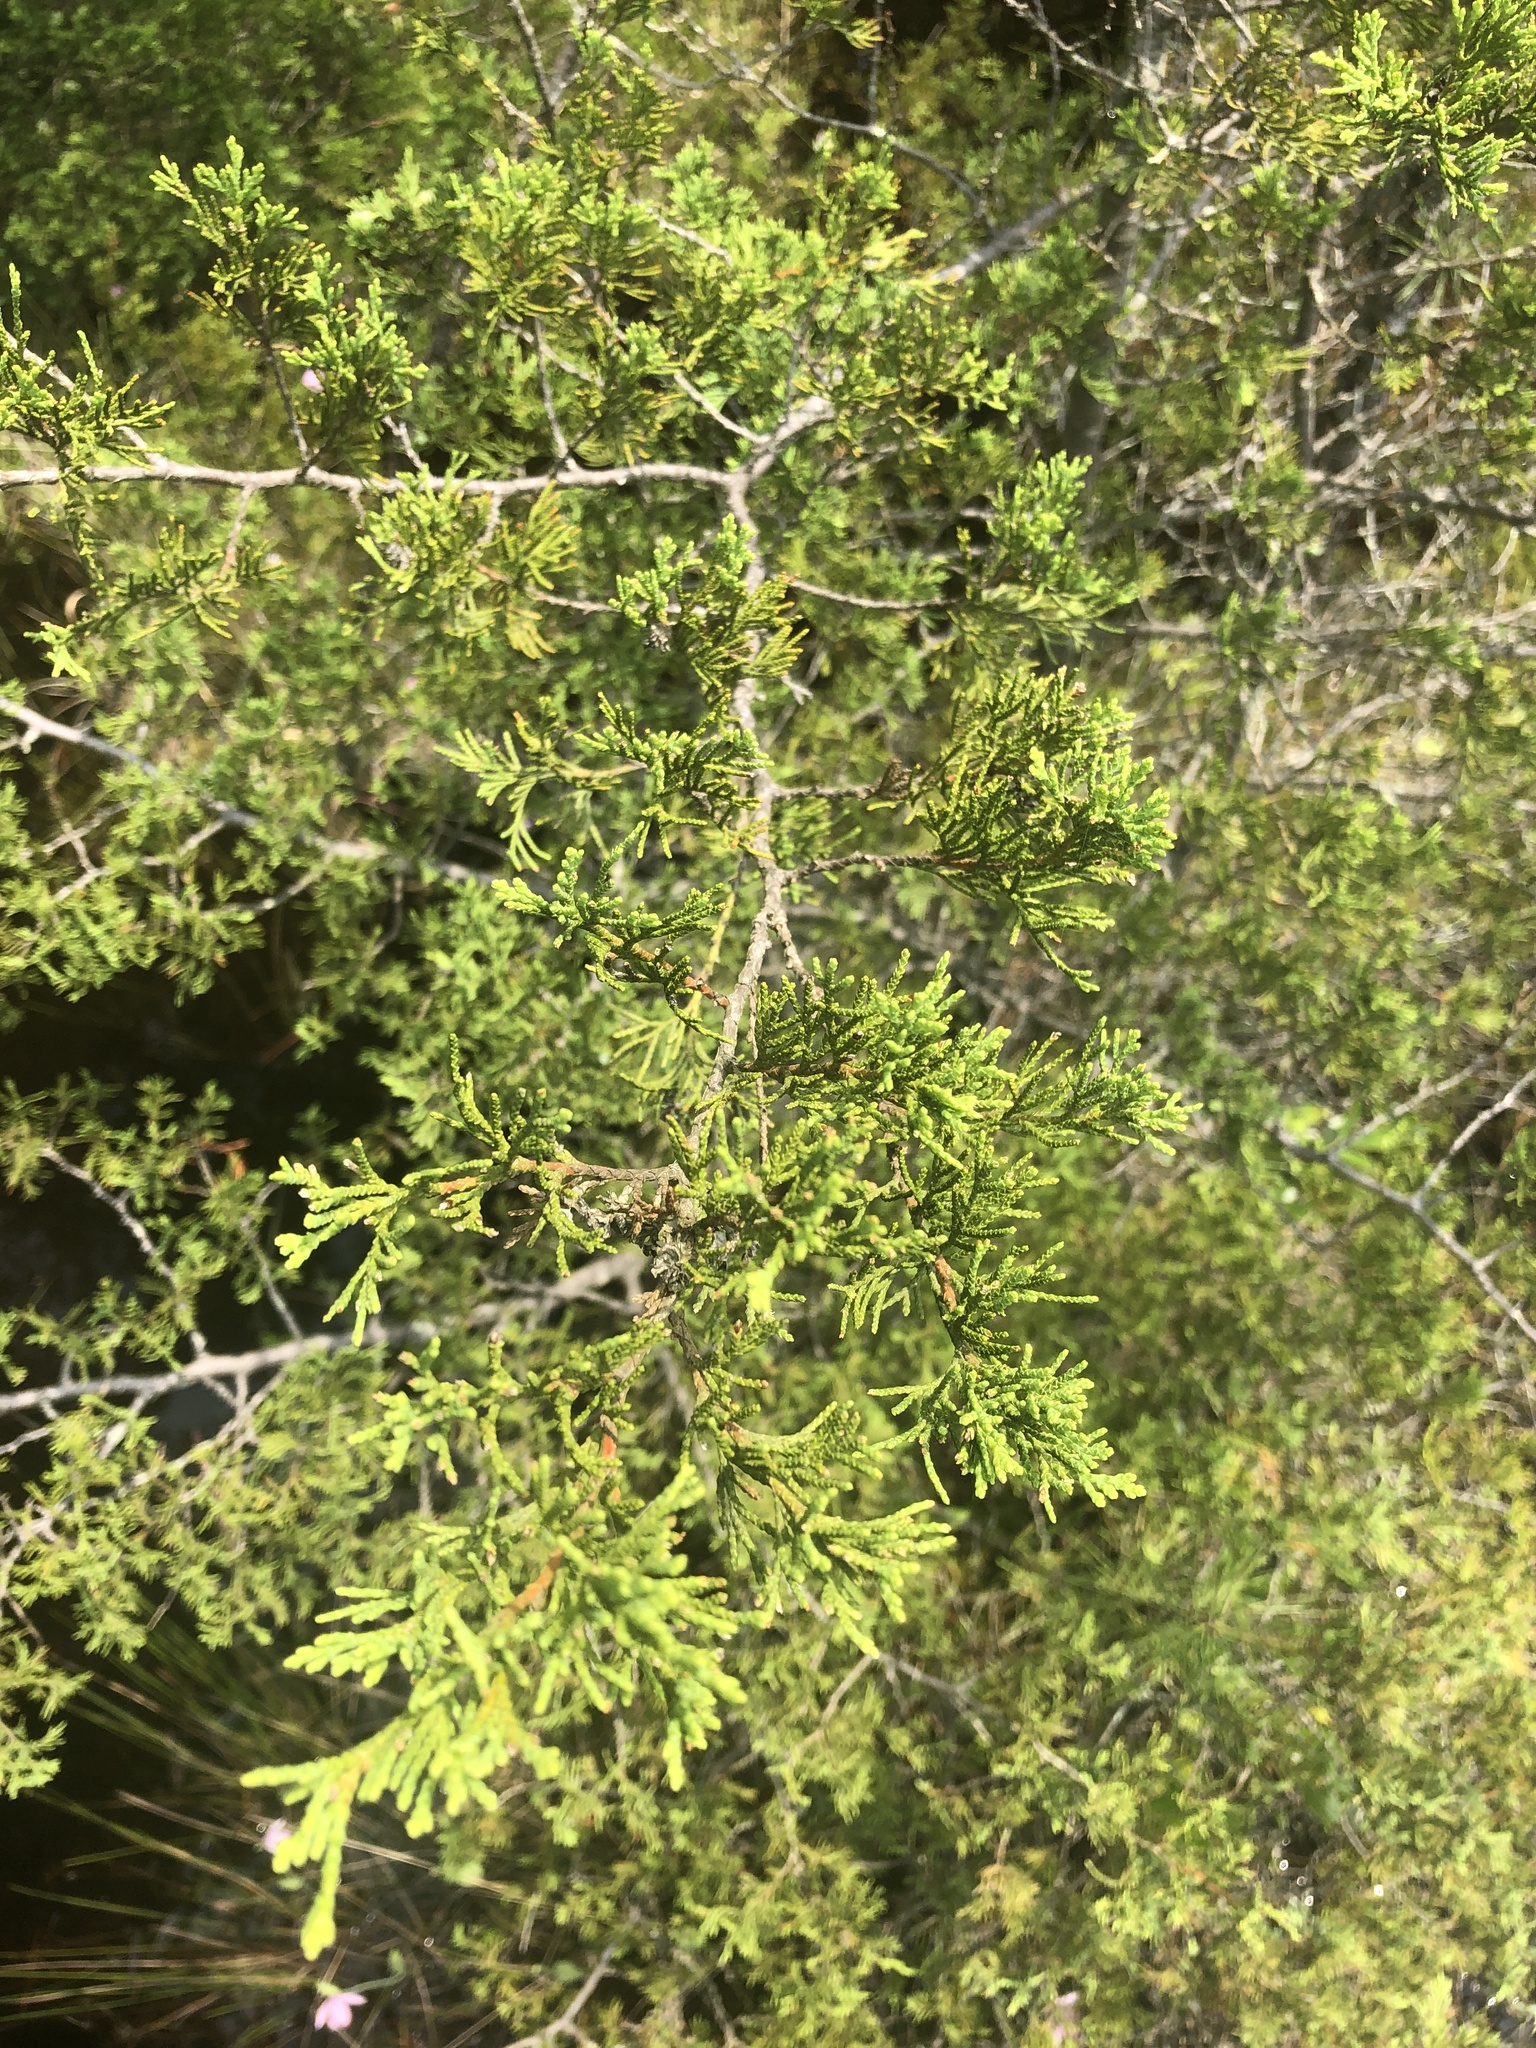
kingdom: Plantae
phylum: Tracheophyta
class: Pinopsida
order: Pinales
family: Cupressaceae
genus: Chamaecyparis
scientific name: Chamaecyparis thyoides
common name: Atlantic white cedar
